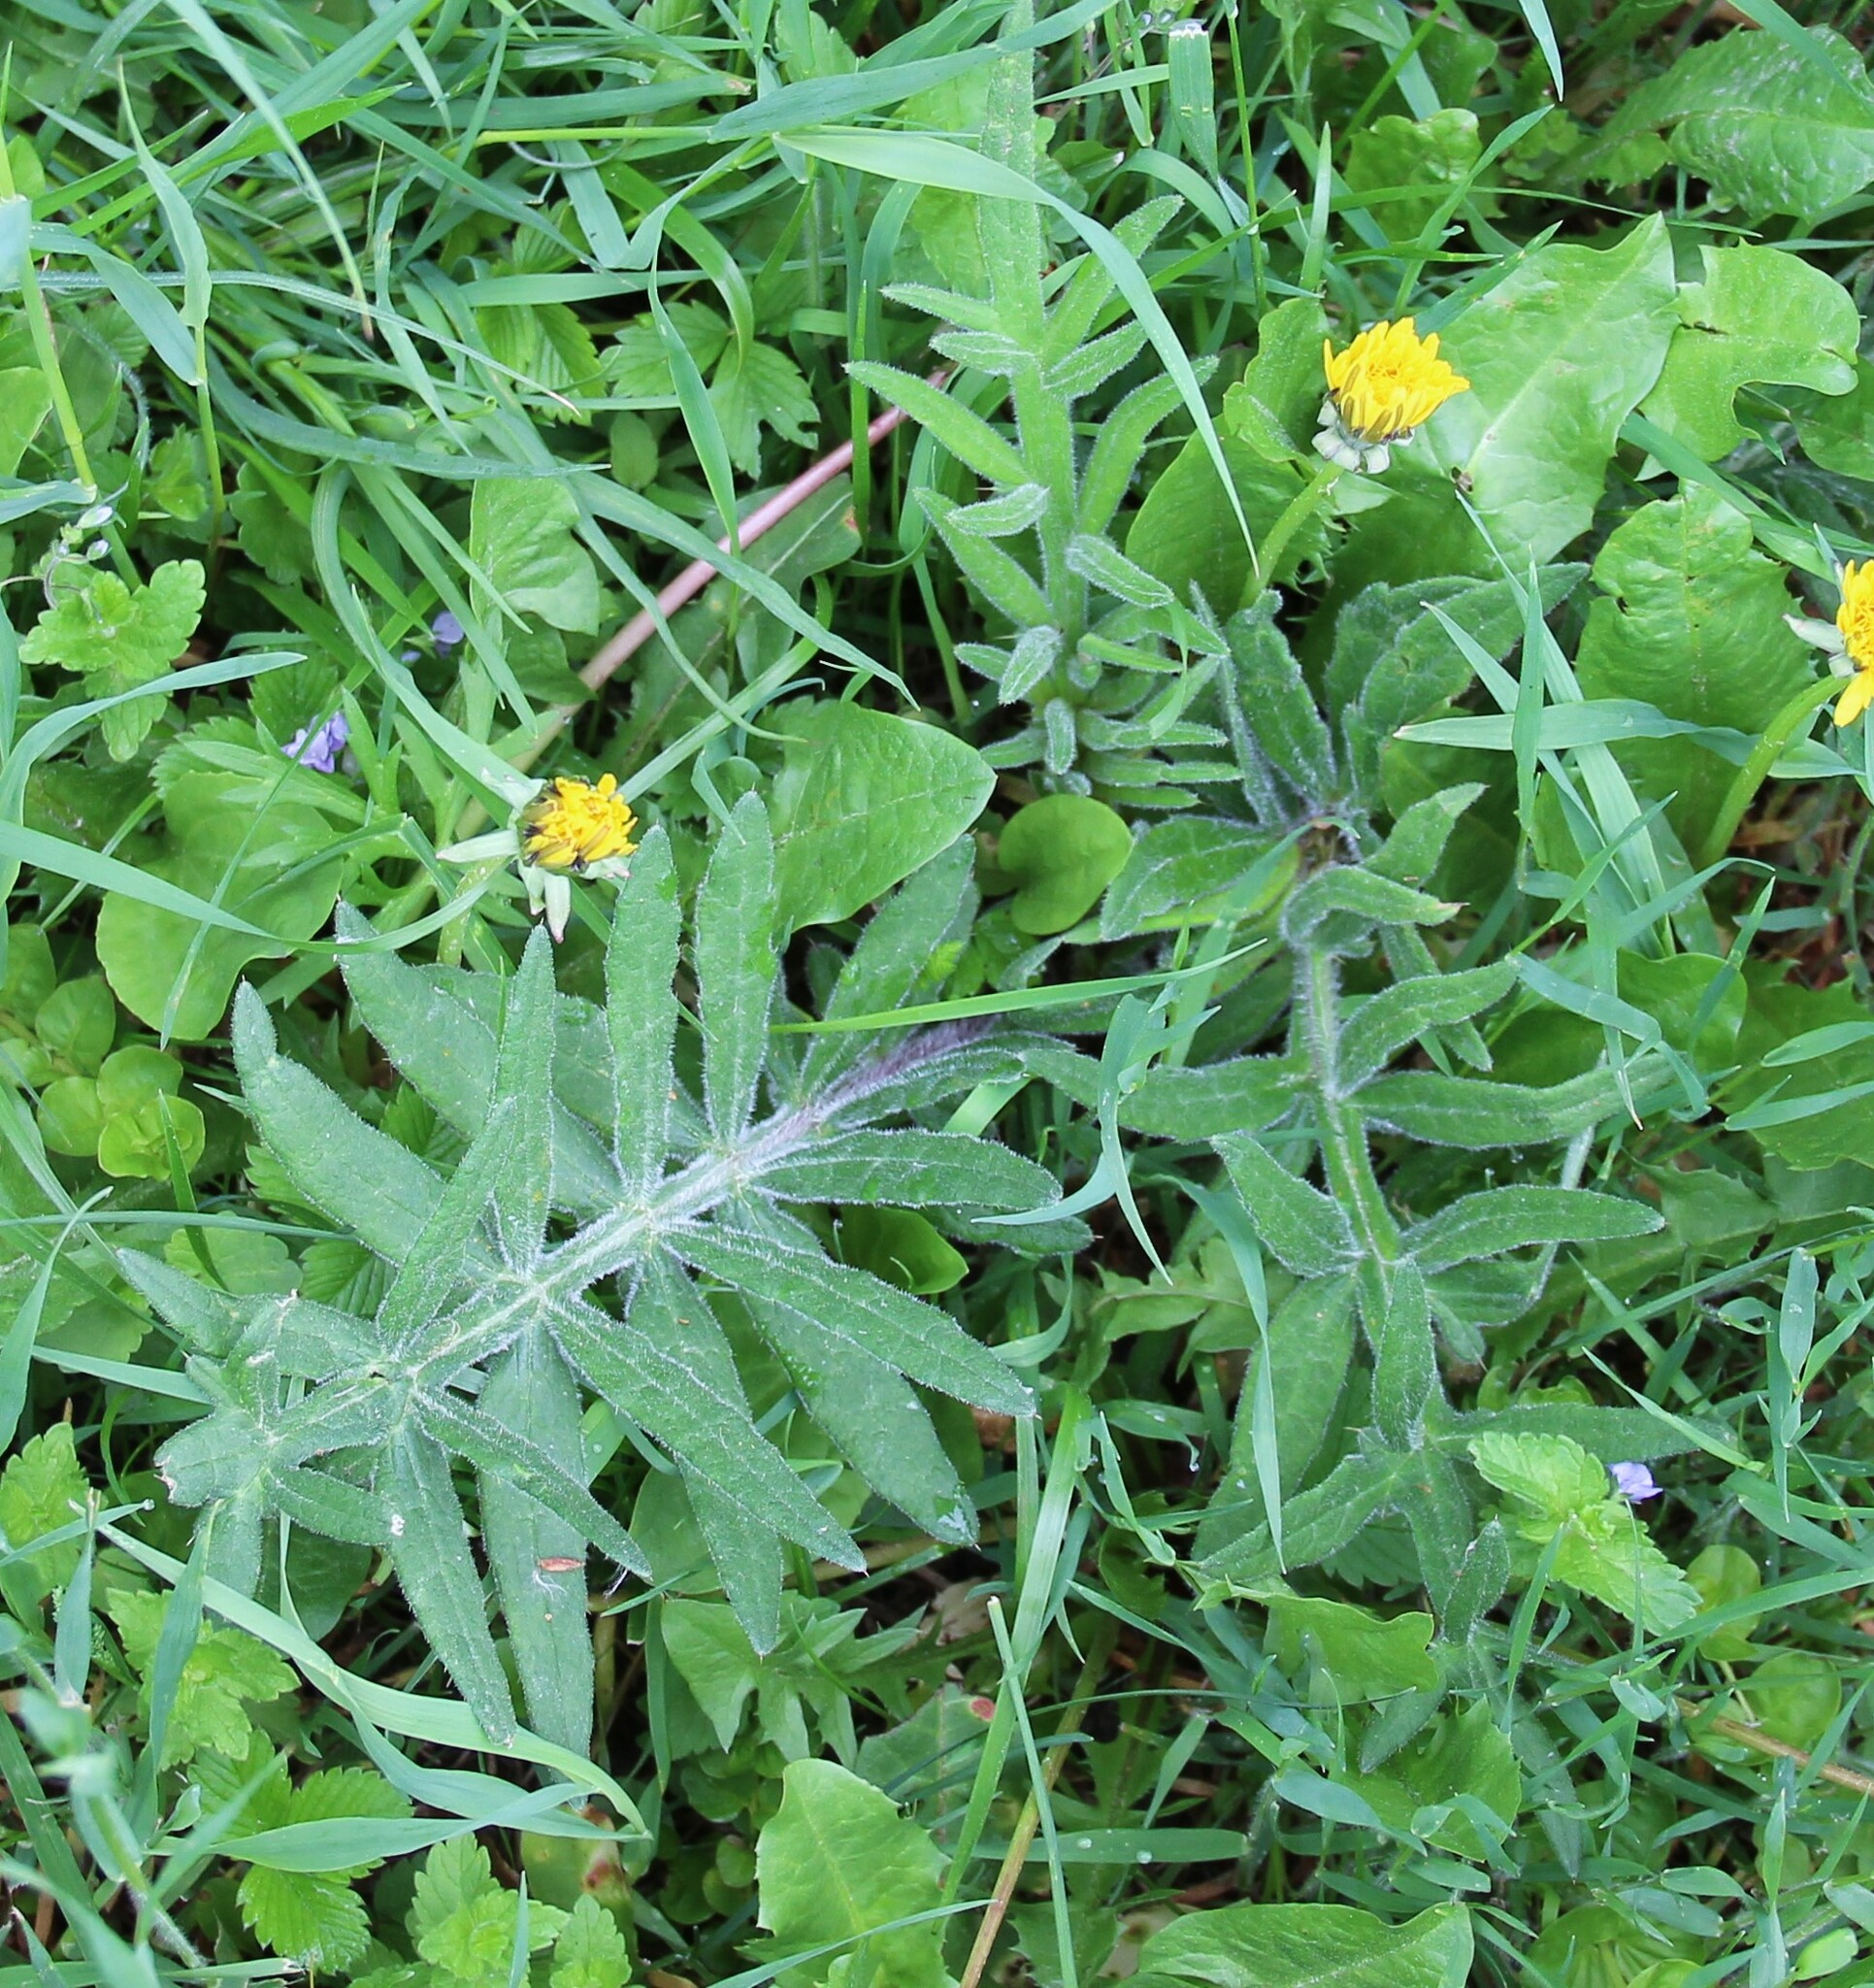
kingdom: Plantae
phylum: Tracheophyta
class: Magnoliopsida
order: Asterales
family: Asteraceae
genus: Lophiolepis
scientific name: Lophiolepis decussata
